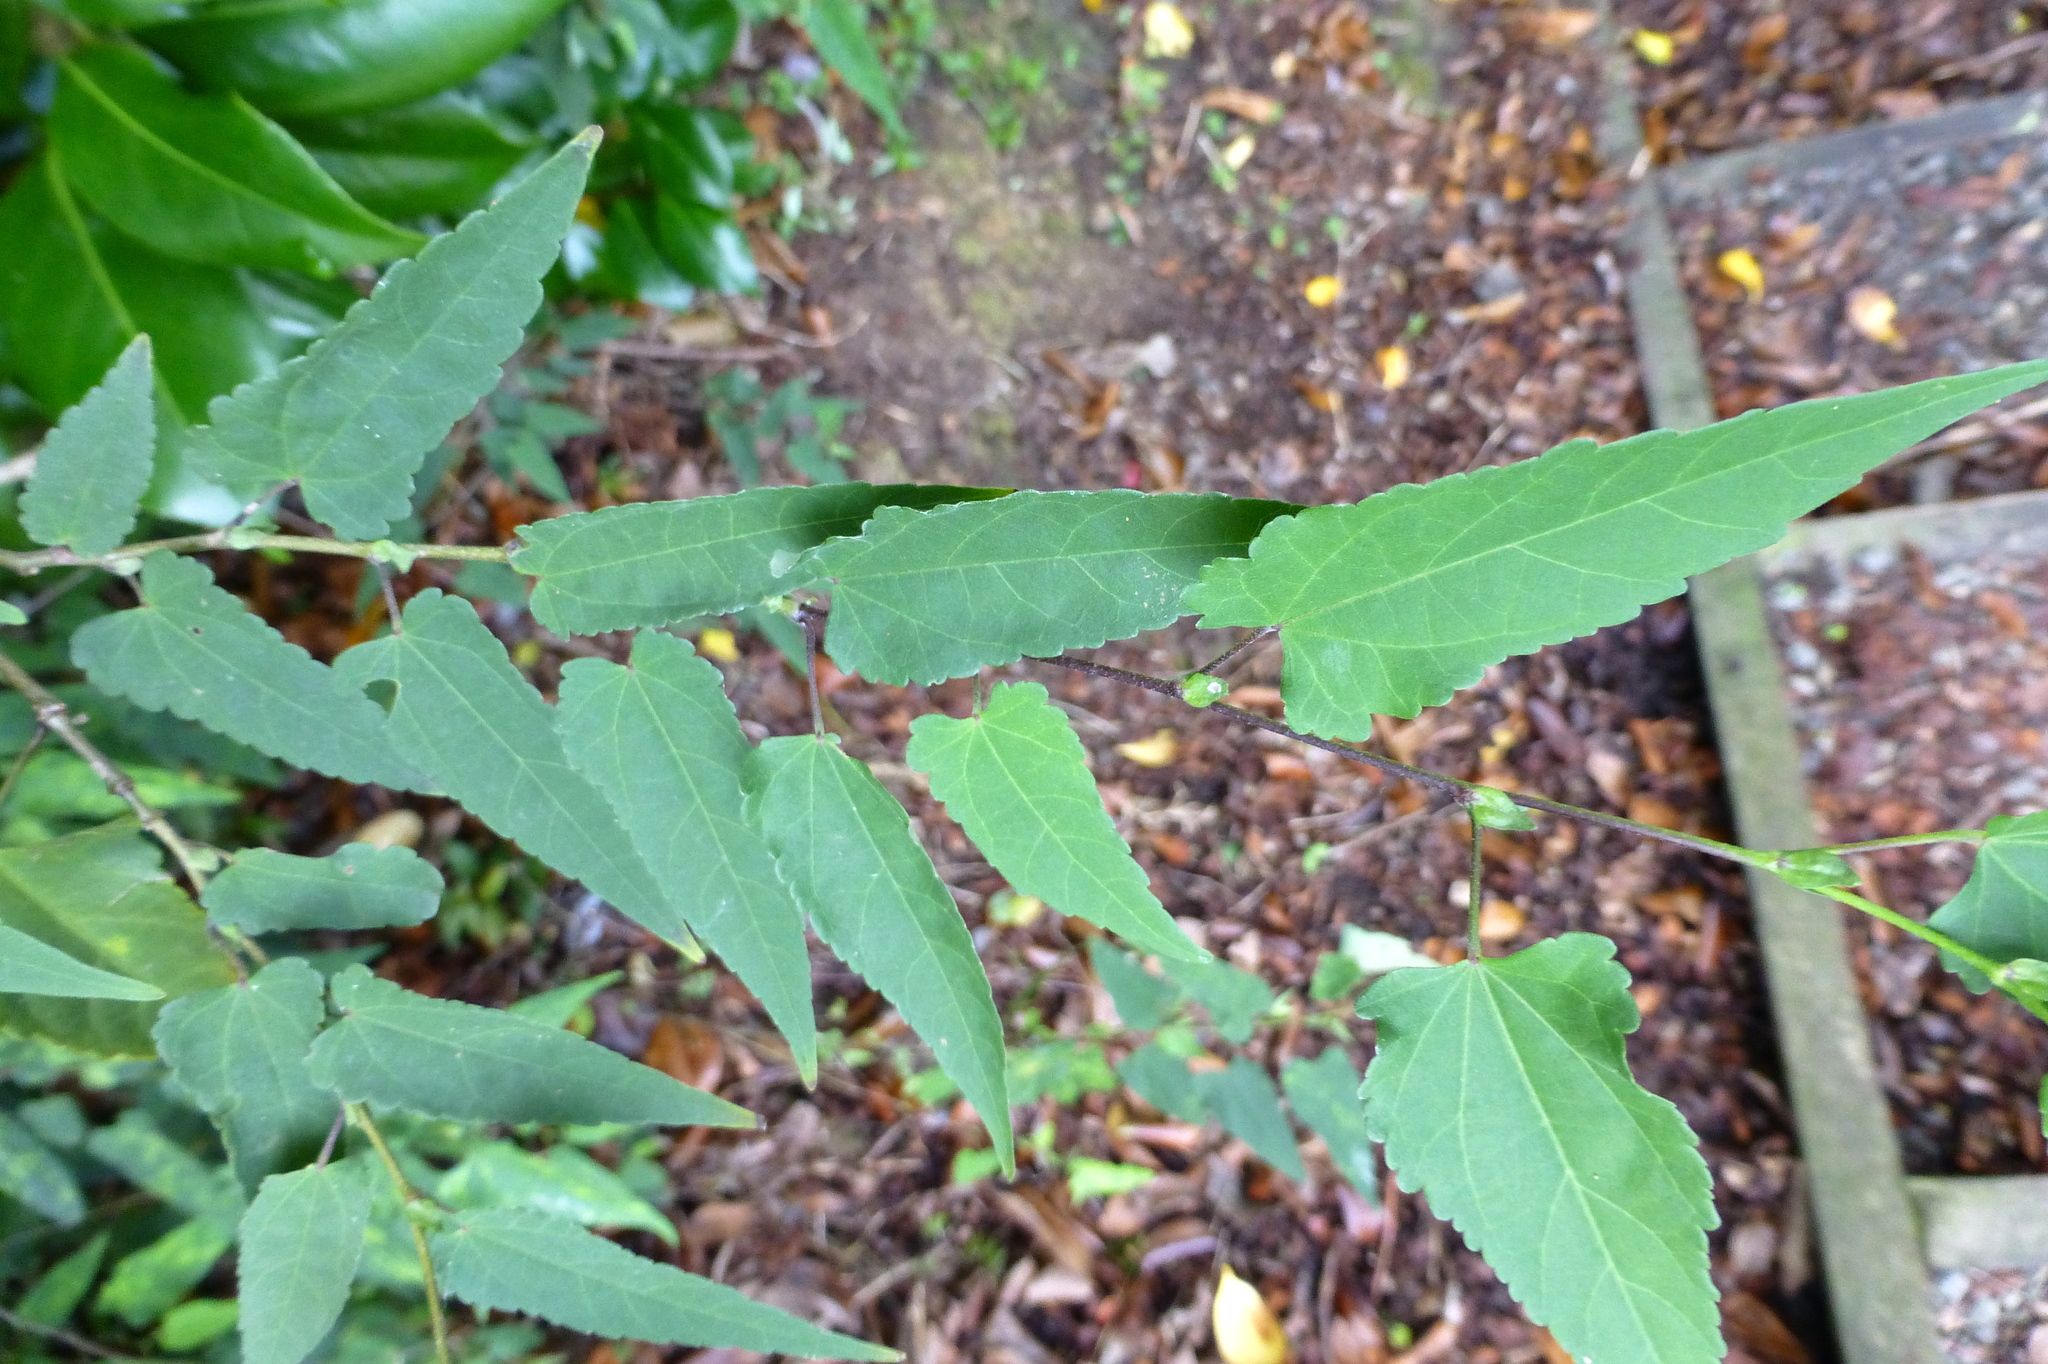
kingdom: Plantae
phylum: Tracheophyta
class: Magnoliopsida
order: Malvales
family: Malvaceae
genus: Callianthe
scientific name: Callianthe megapotamica
